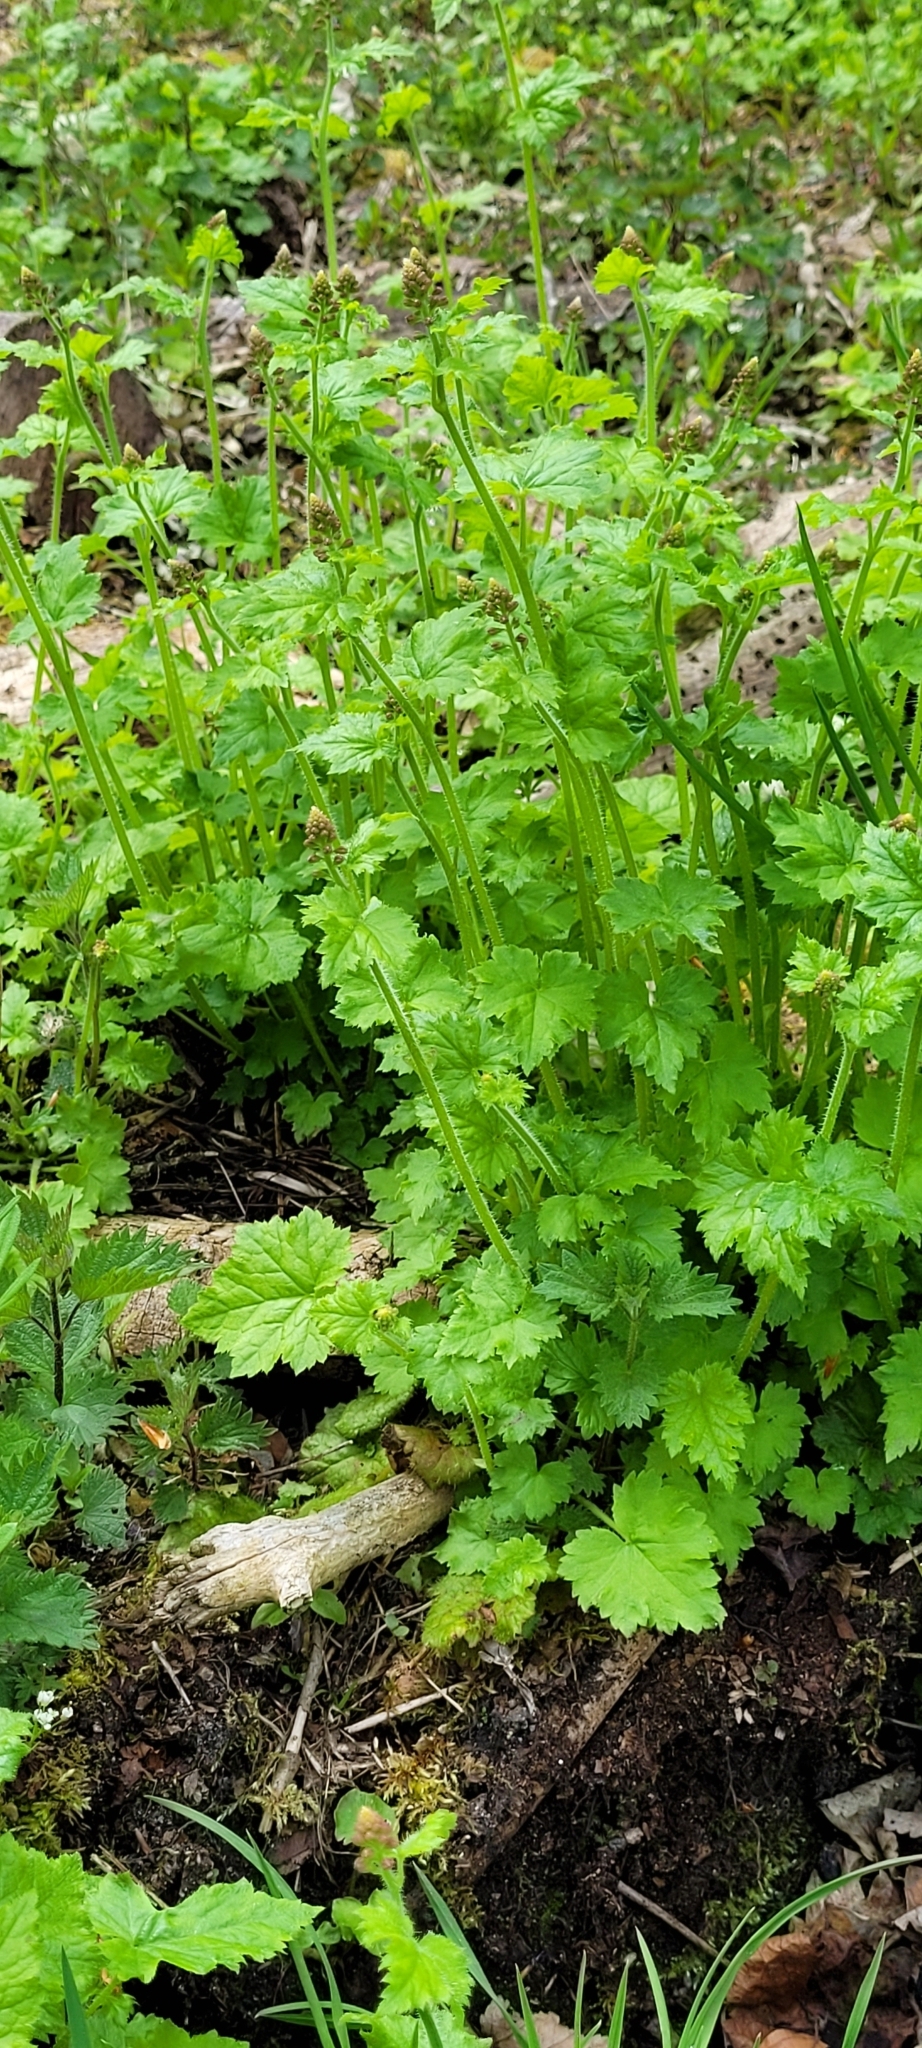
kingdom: Plantae
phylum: Tracheophyta
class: Magnoliopsida
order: Saxifragales
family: Saxifragaceae
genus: Tolmiea
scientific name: Tolmiea menziesii
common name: Pick-a-back-plant
